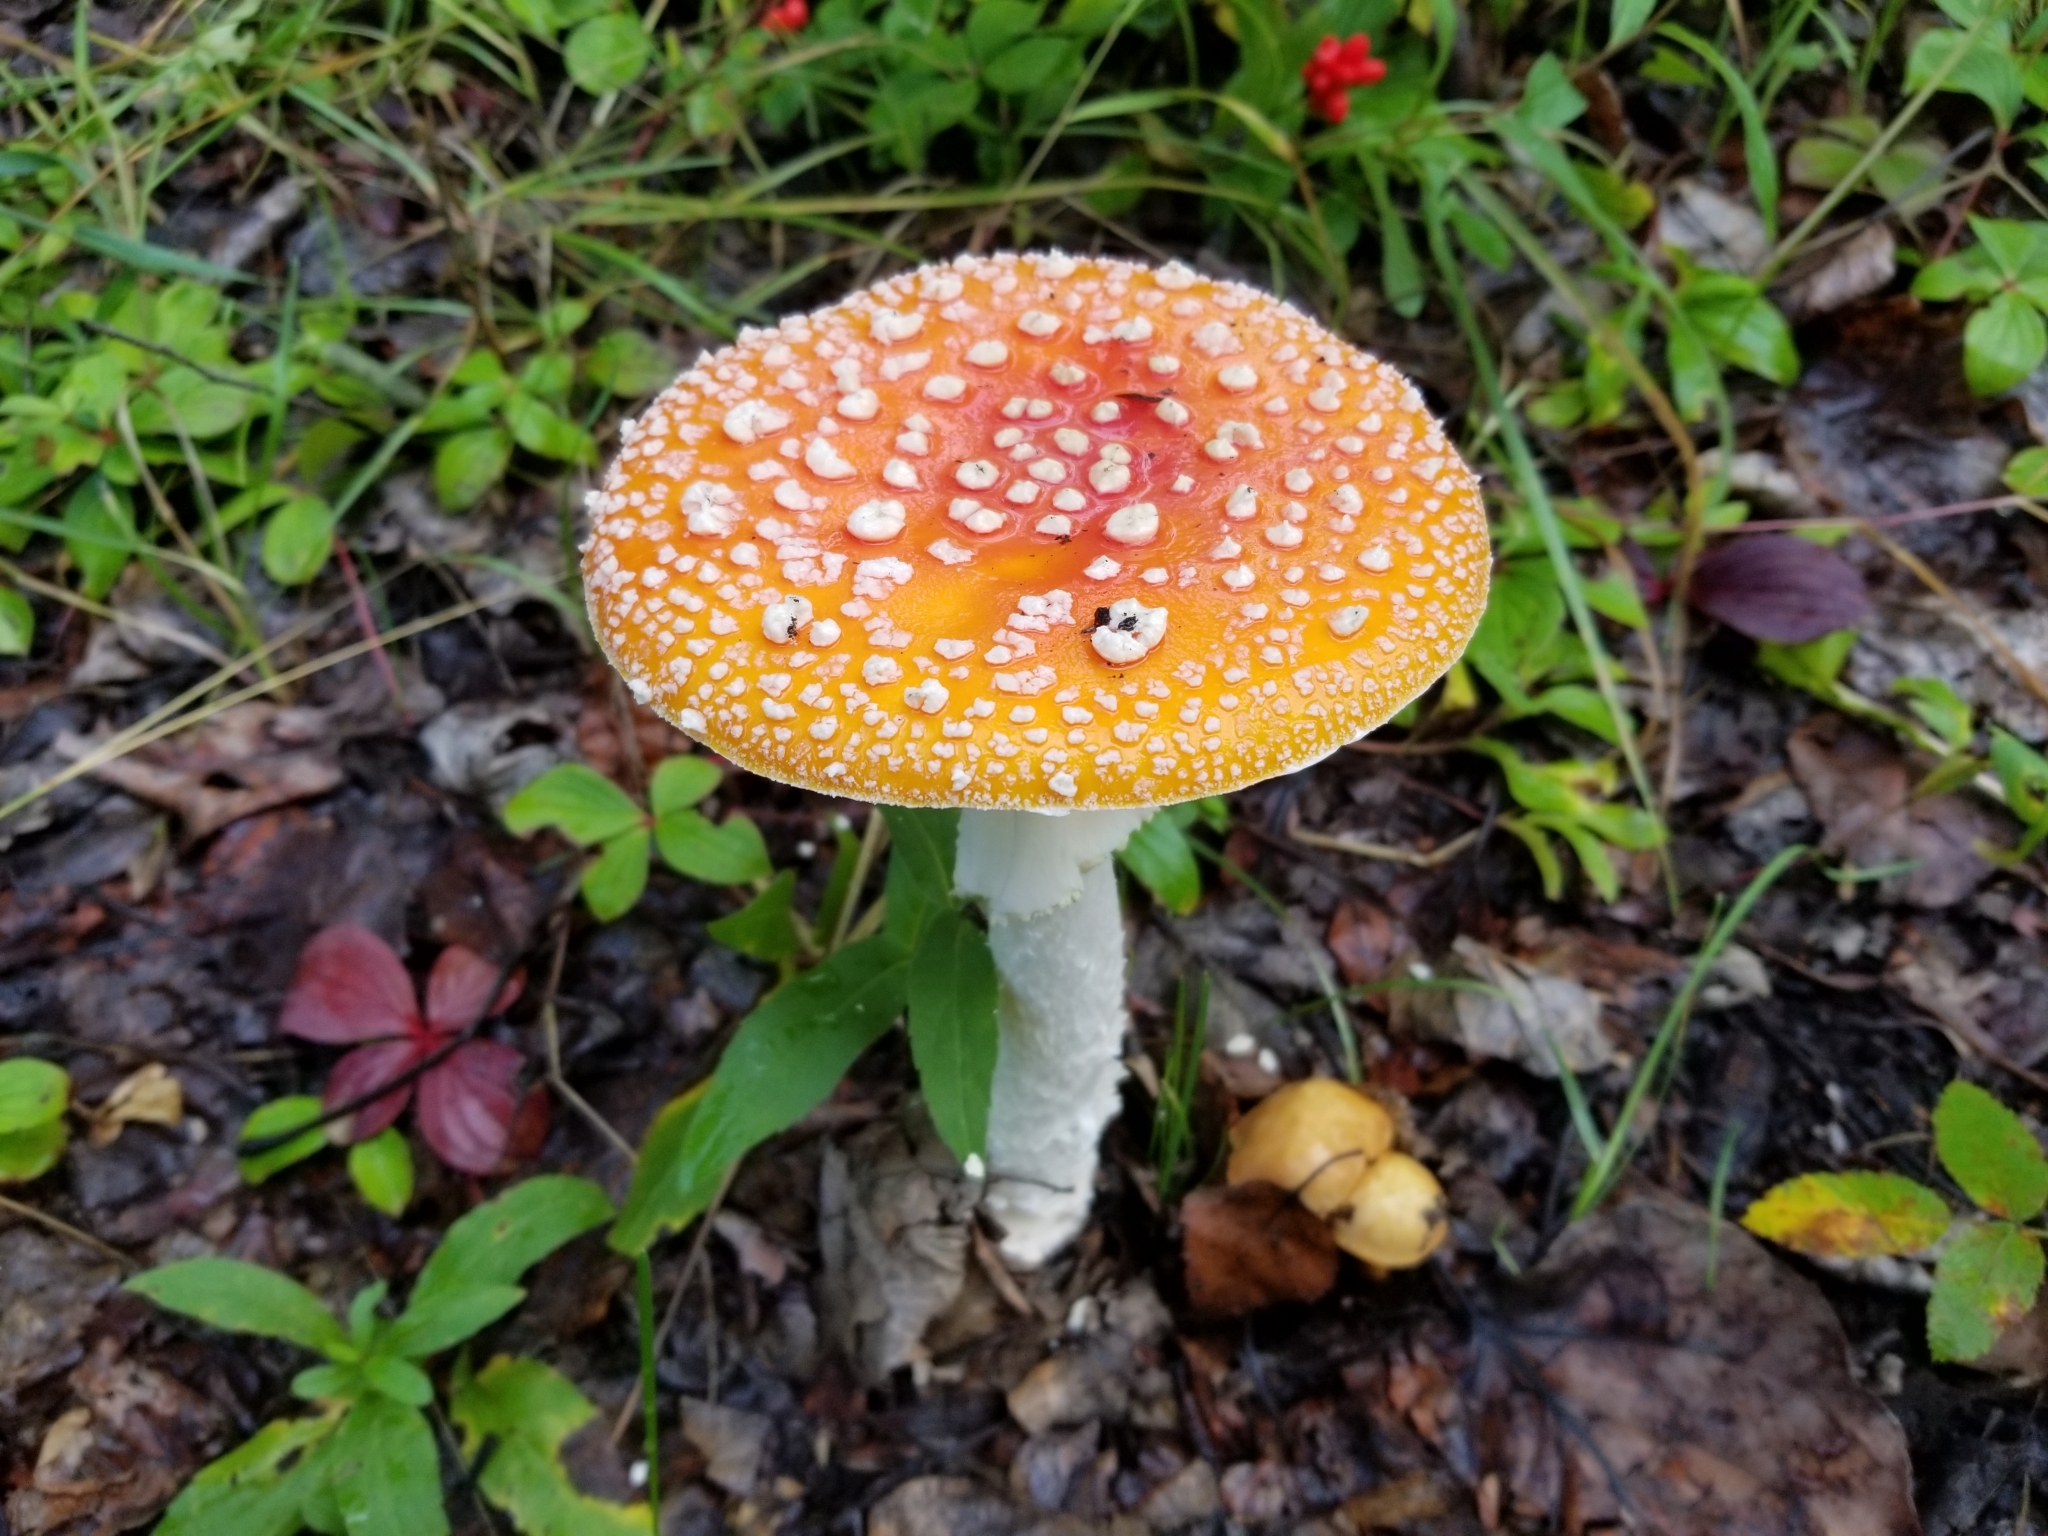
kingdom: Fungi
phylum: Basidiomycota
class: Agaricomycetes
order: Agaricales
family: Amanitaceae
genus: Amanita
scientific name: Amanita muscaria
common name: Fly agaric
